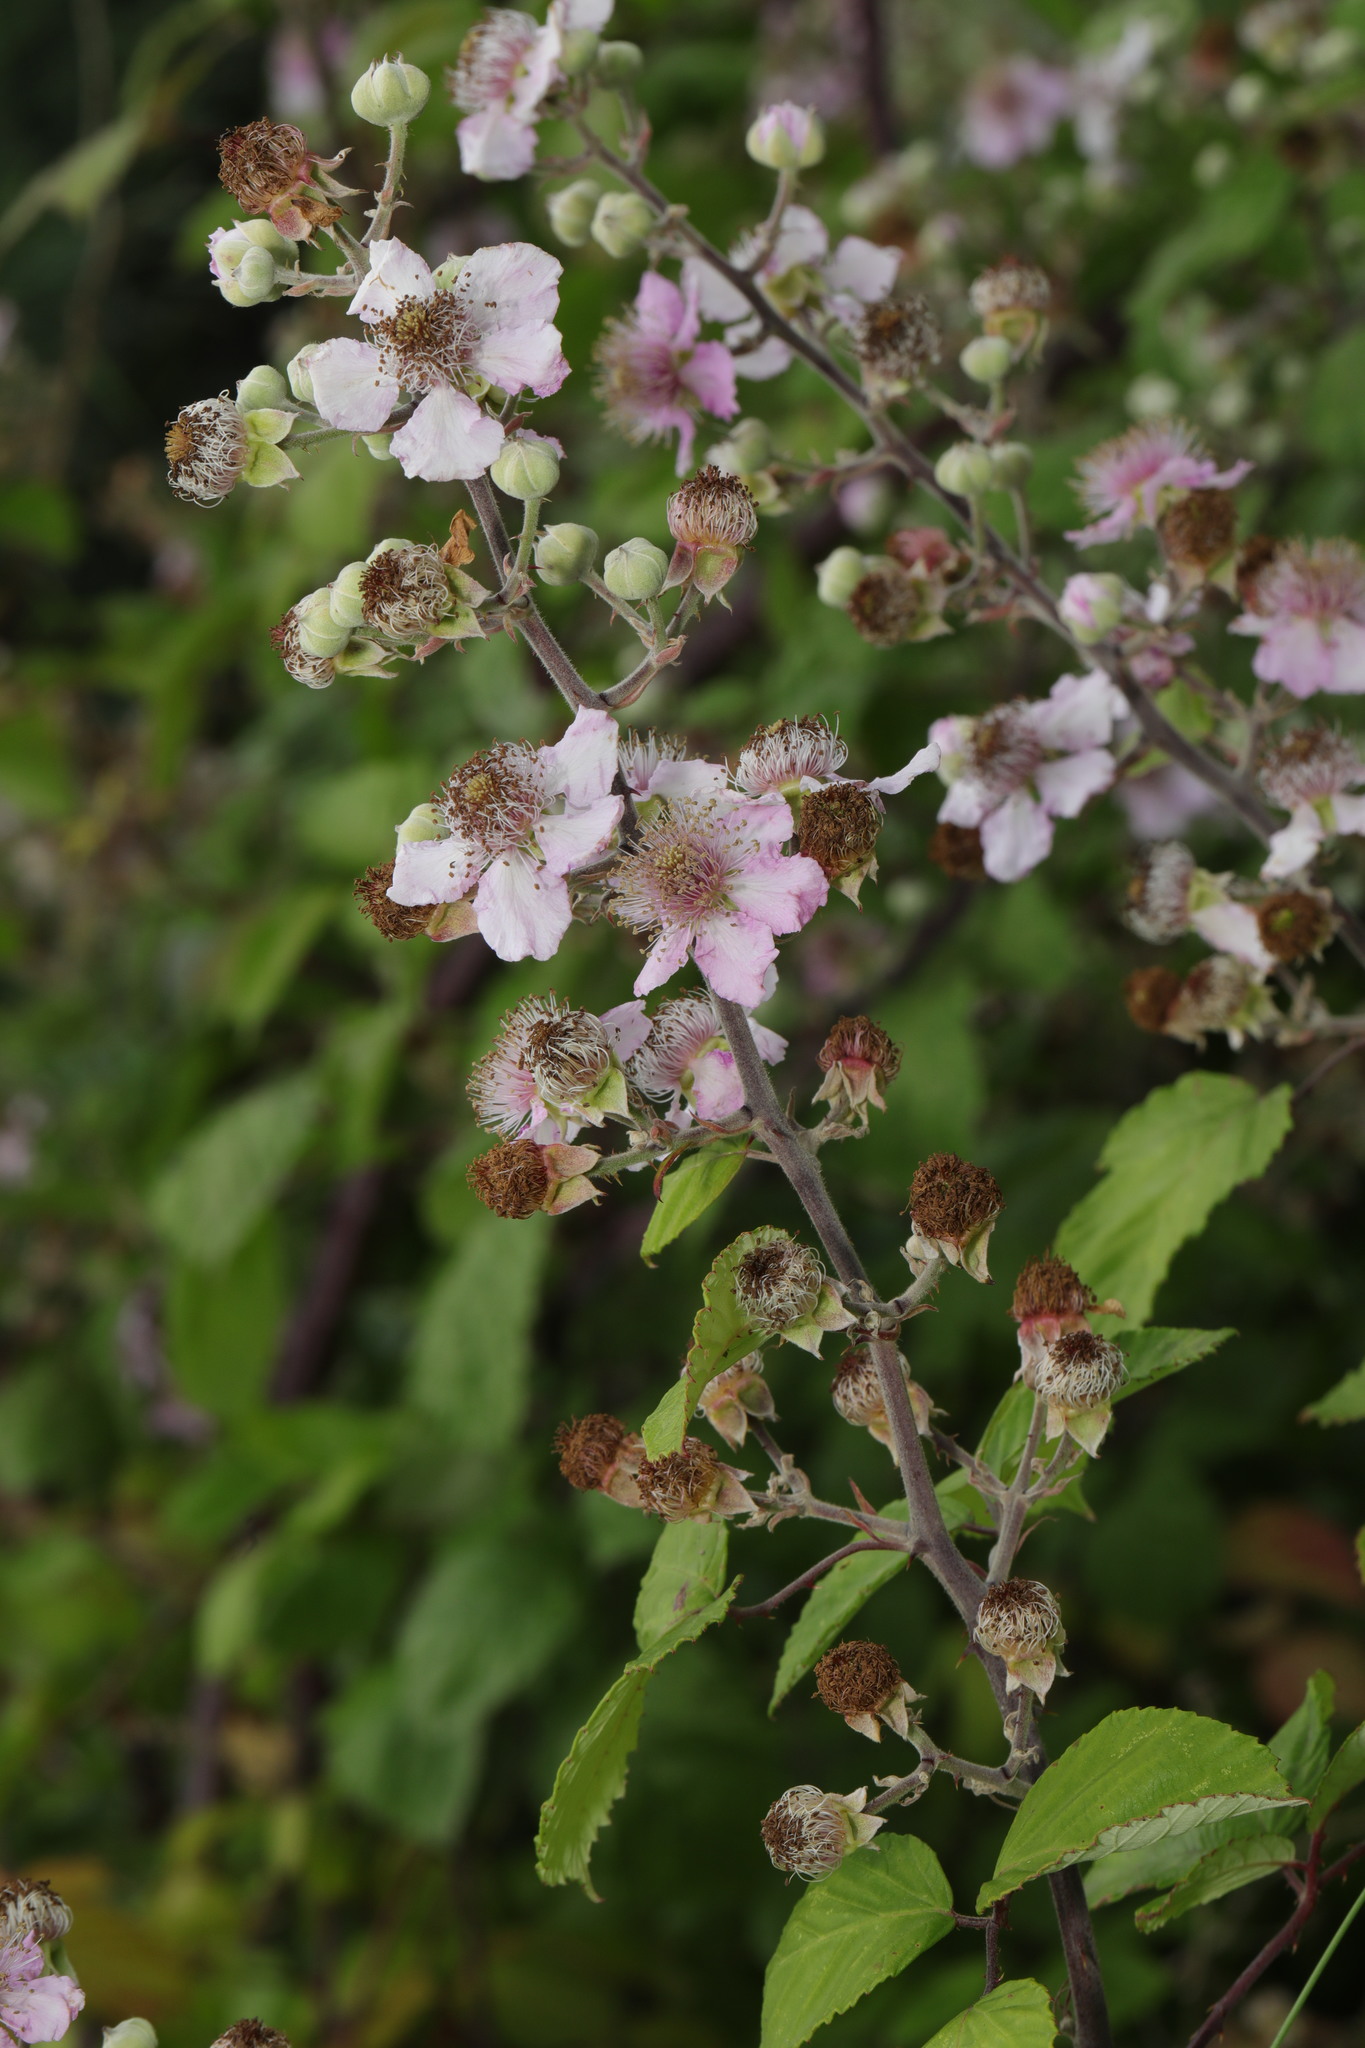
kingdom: Plantae
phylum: Tracheophyta
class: Magnoliopsida
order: Rosales
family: Rosaceae
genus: Rubus
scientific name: Rubus ulmifolius
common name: Elmleaf blackberry
